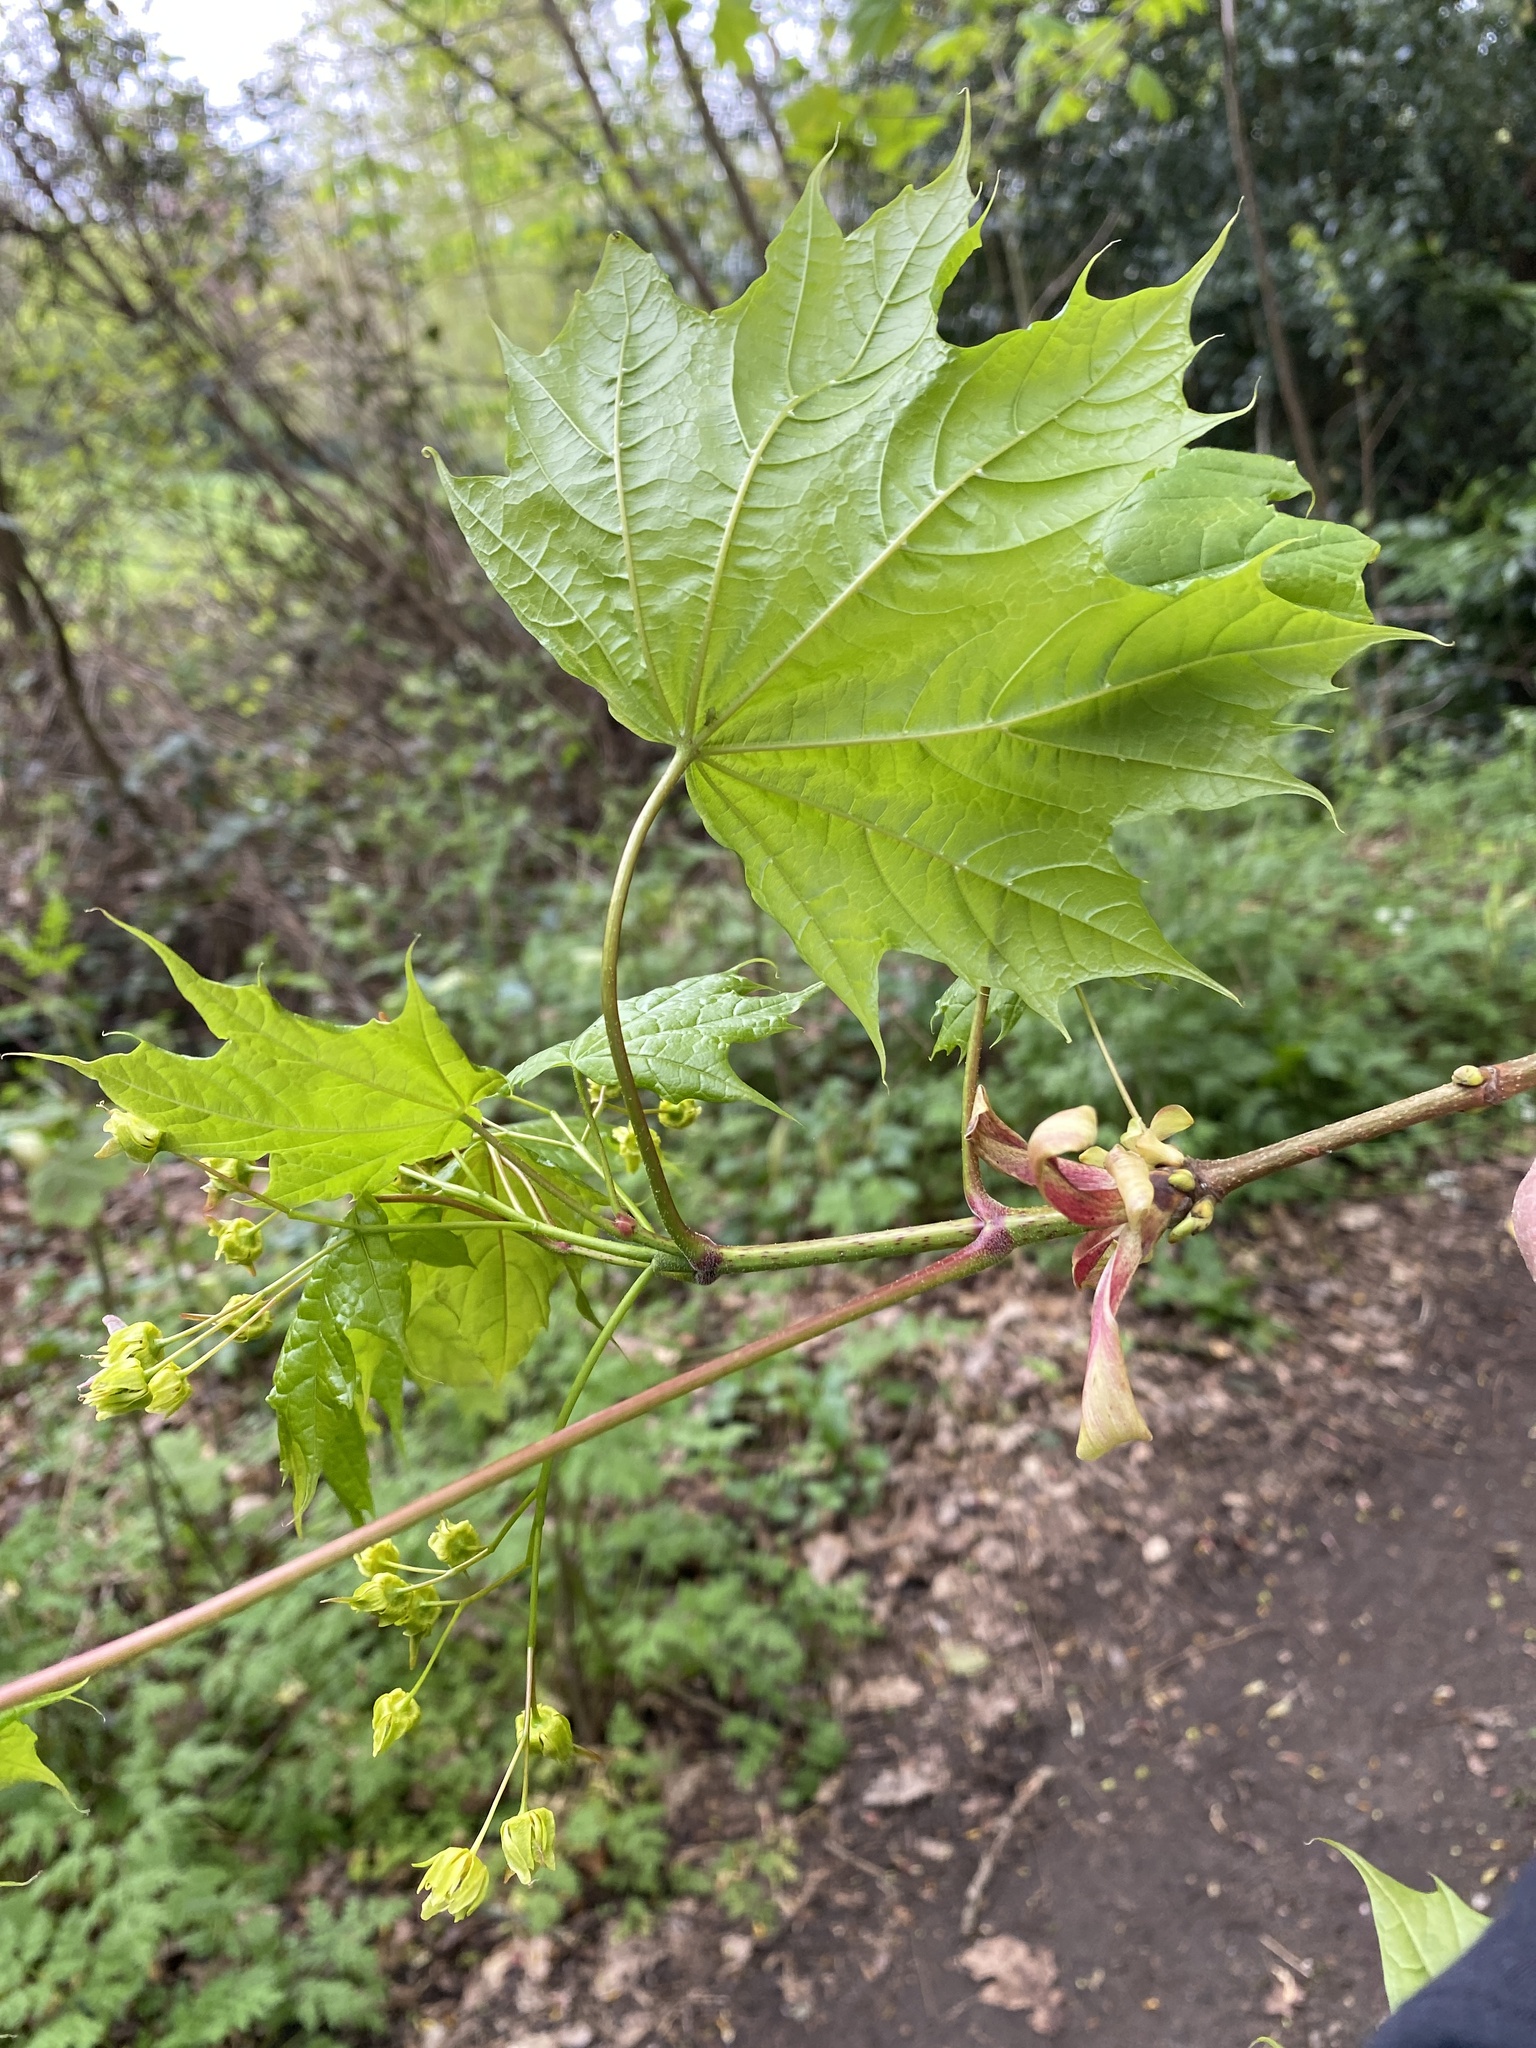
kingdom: Plantae
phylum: Tracheophyta
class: Magnoliopsida
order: Sapindales
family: Sapindaceae
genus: Acer
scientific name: Acer platanoides
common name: Norway maple
